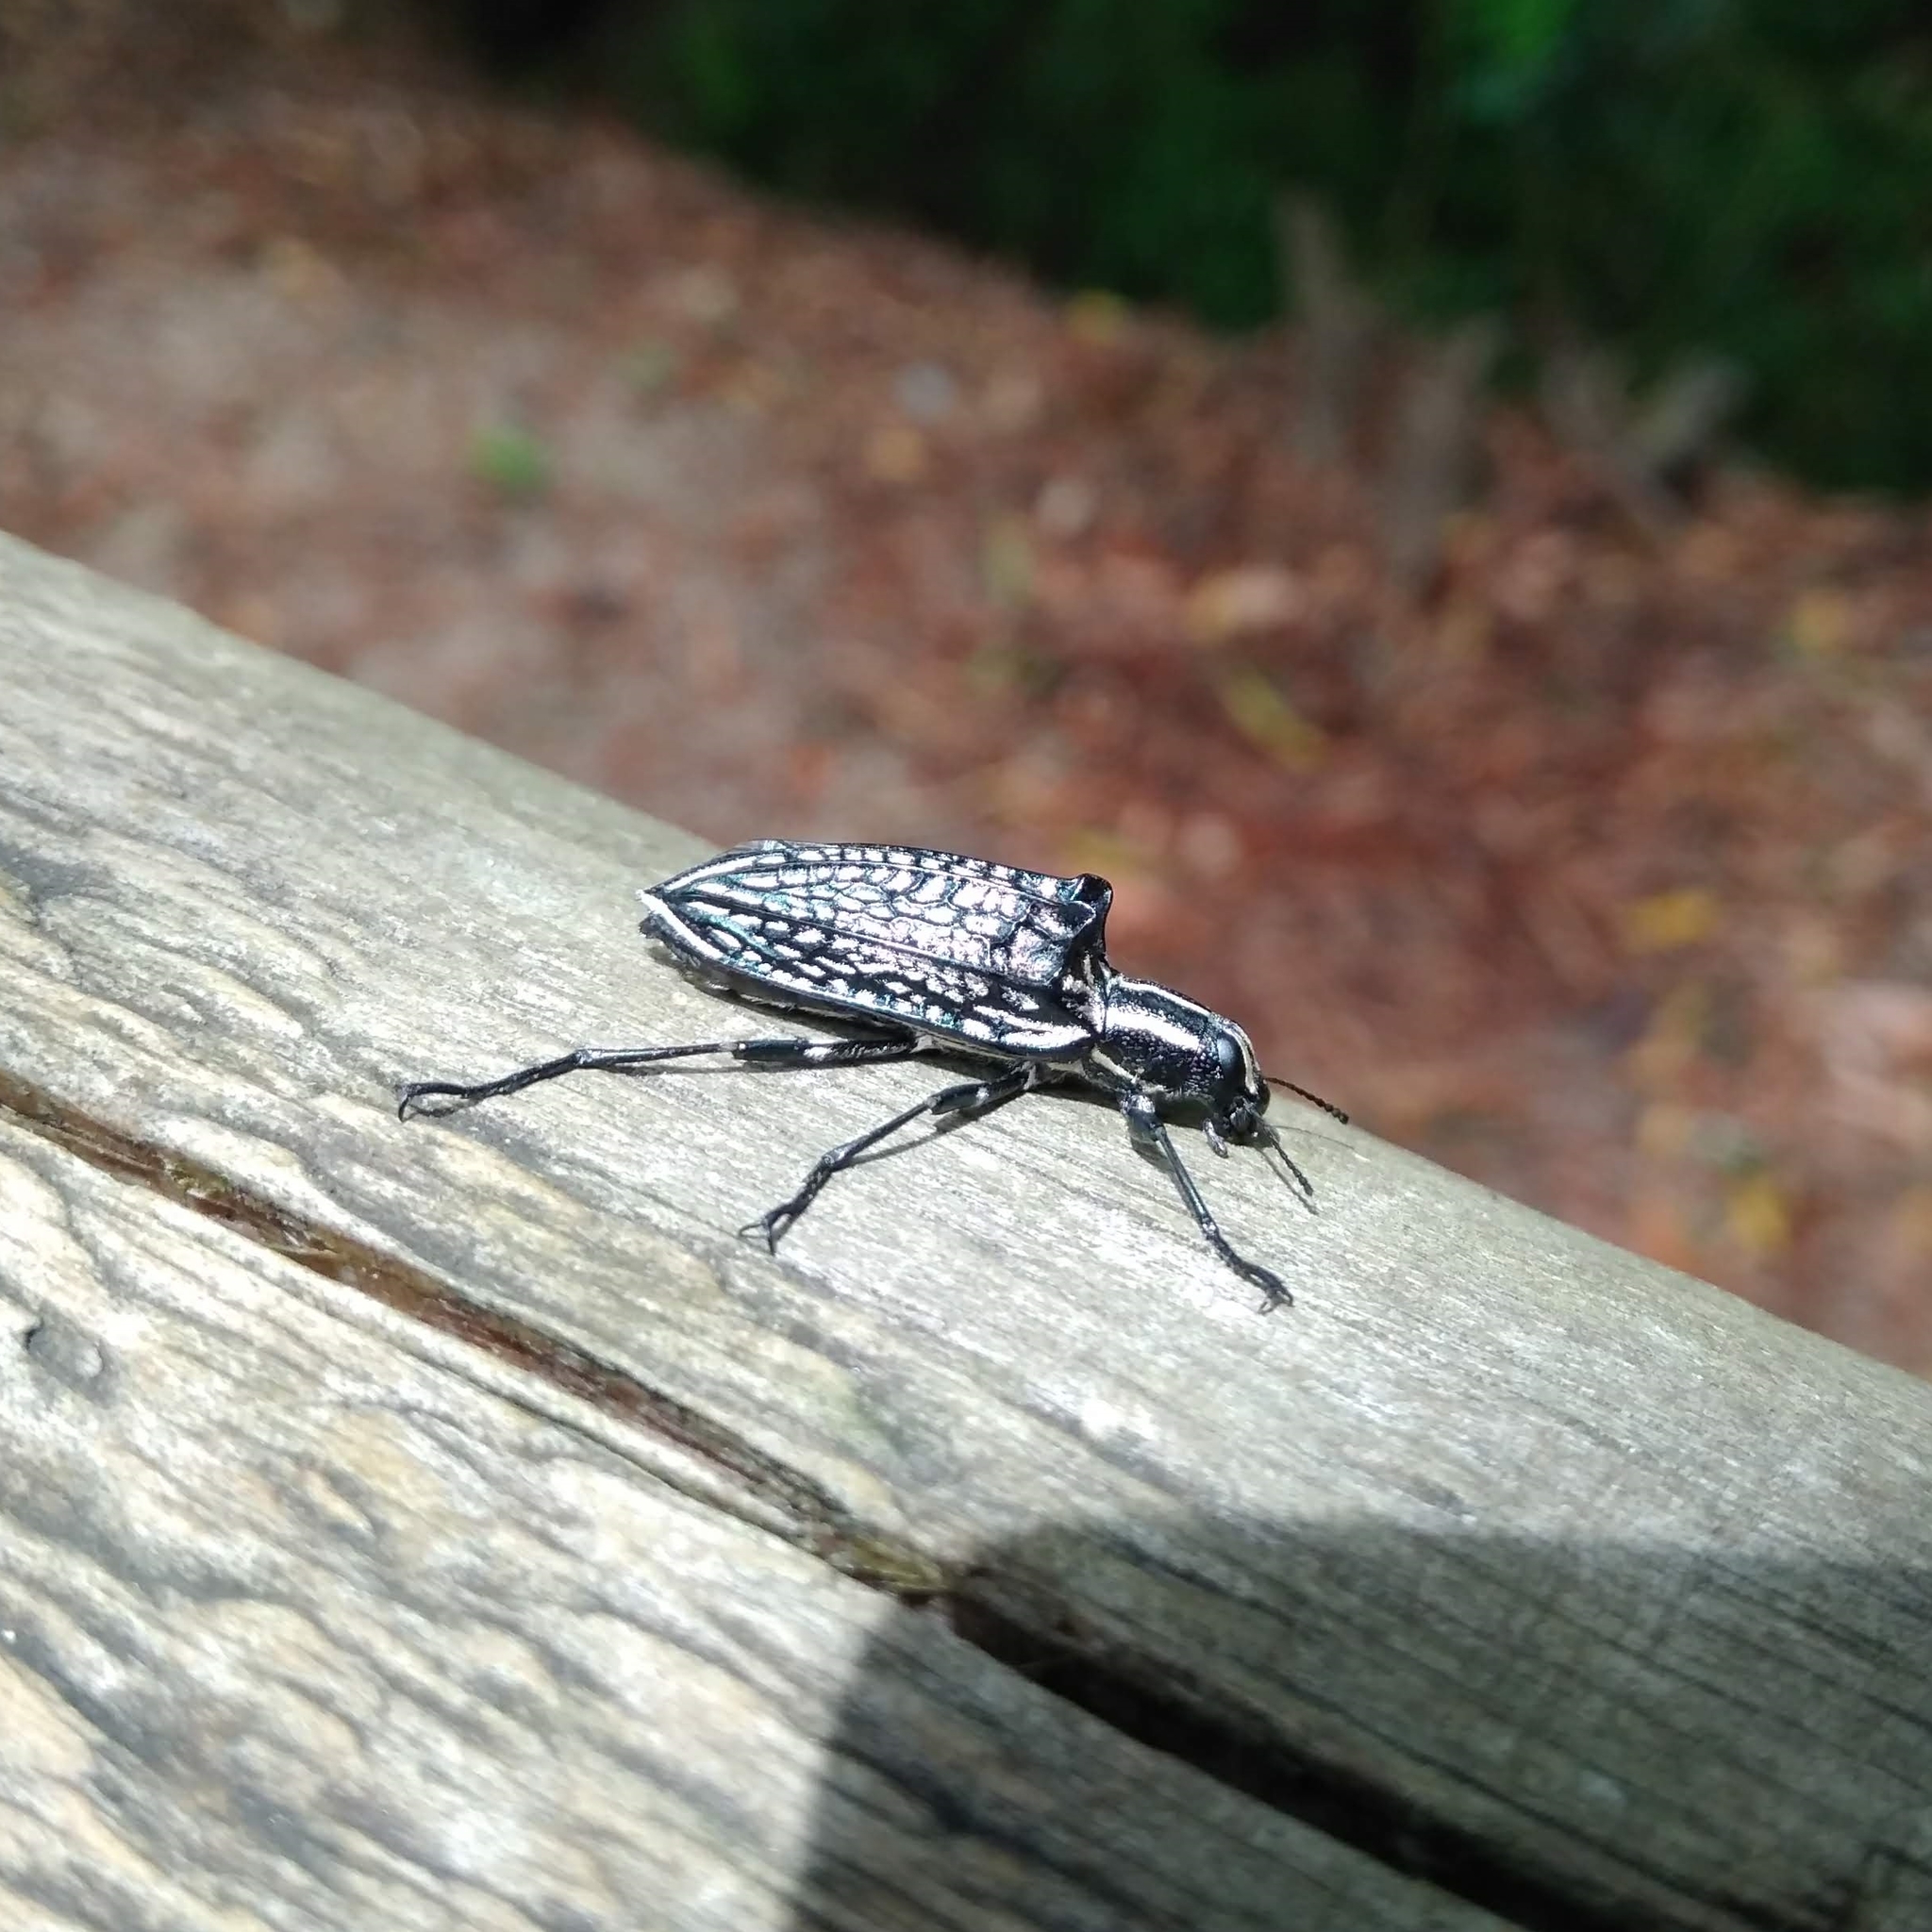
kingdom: Animalia
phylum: Arthropoda
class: Insecta
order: Coleoptera
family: Tenebrionidae
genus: Homocyrtus
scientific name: Homocyrtus
